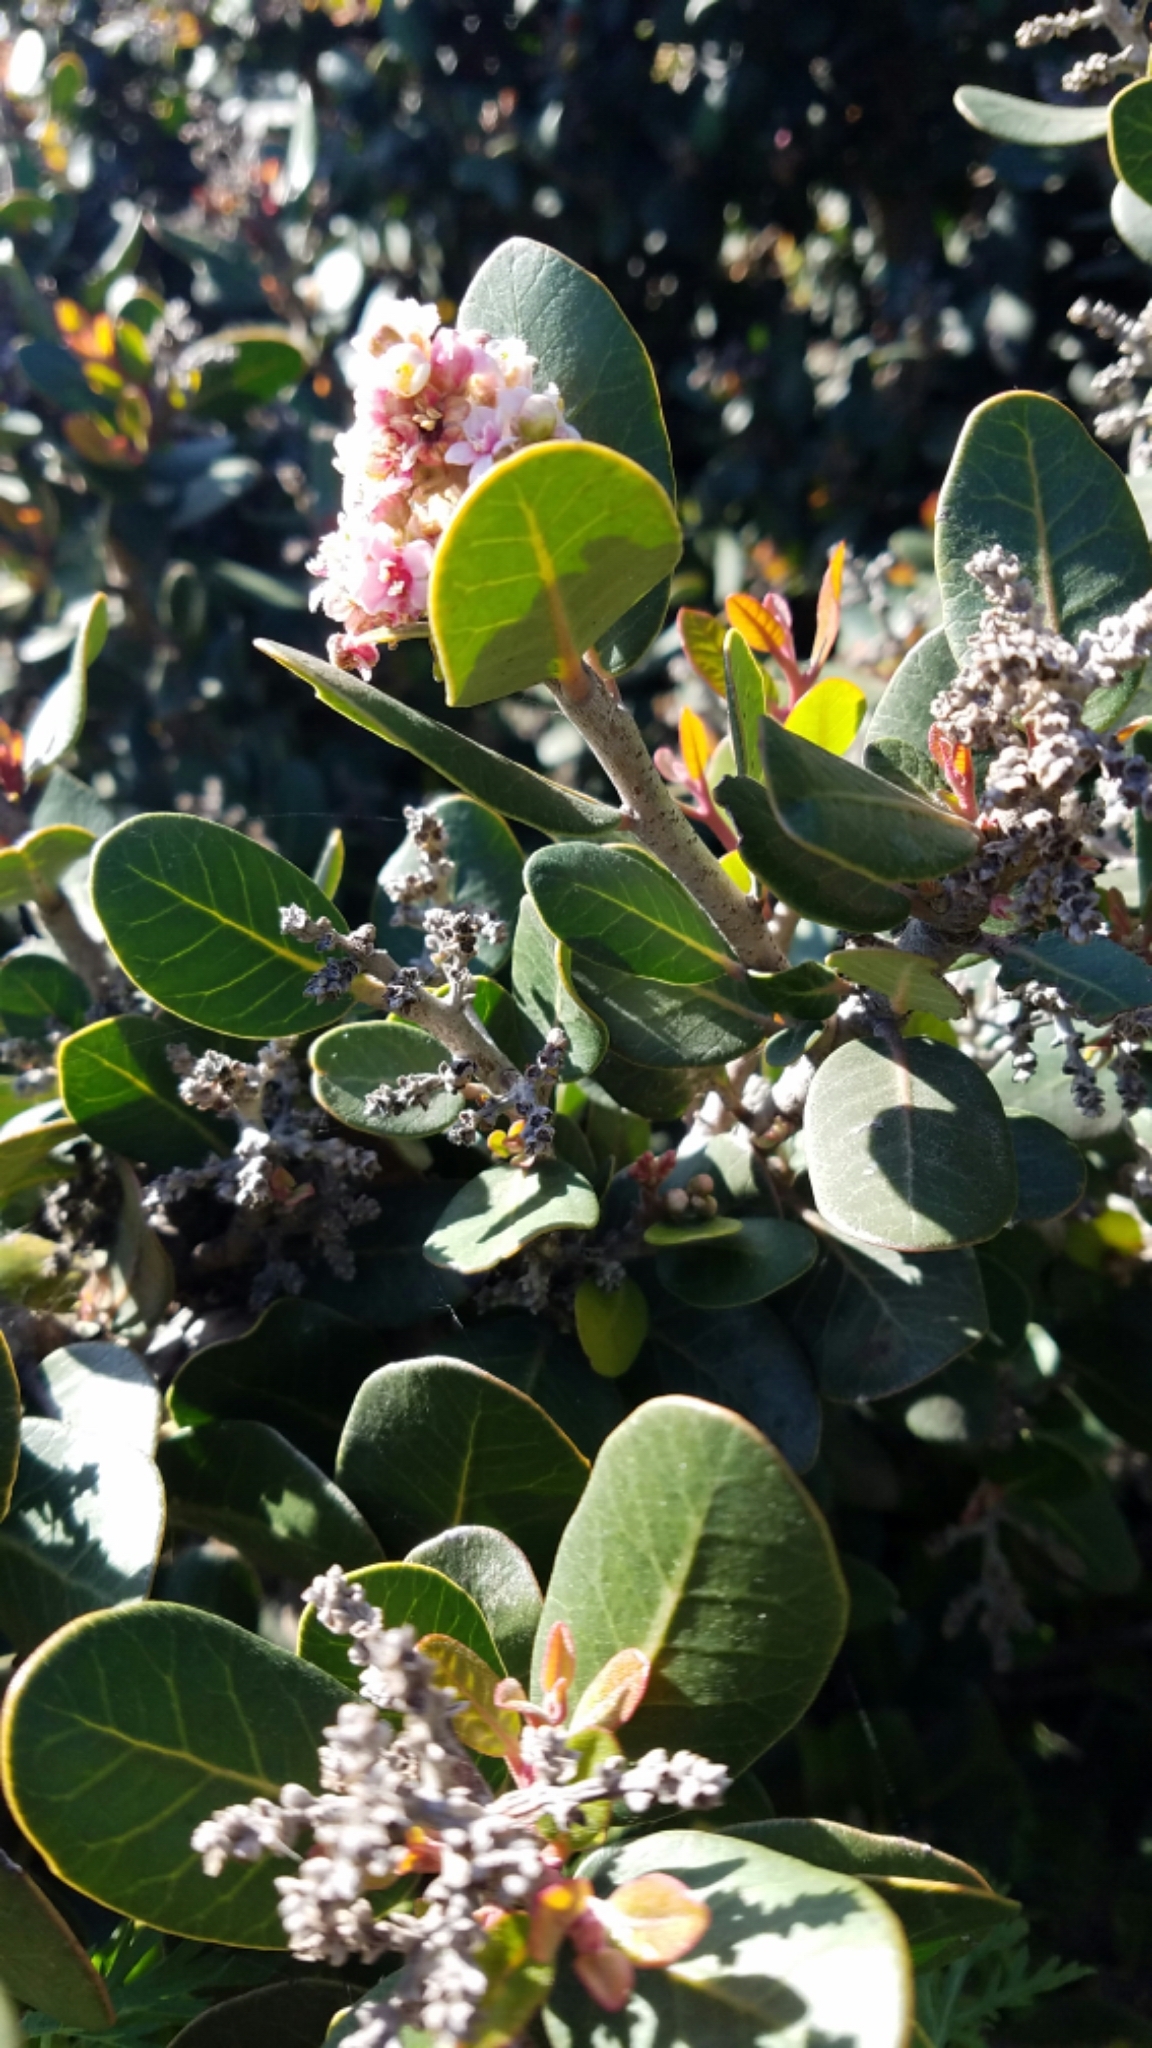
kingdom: Plantae
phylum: Tracheophyta
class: Magnoliopsida
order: Sapindales
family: Anacardiaceae
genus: Rhus
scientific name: Rhus integrifolia
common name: Lemonade sumac
